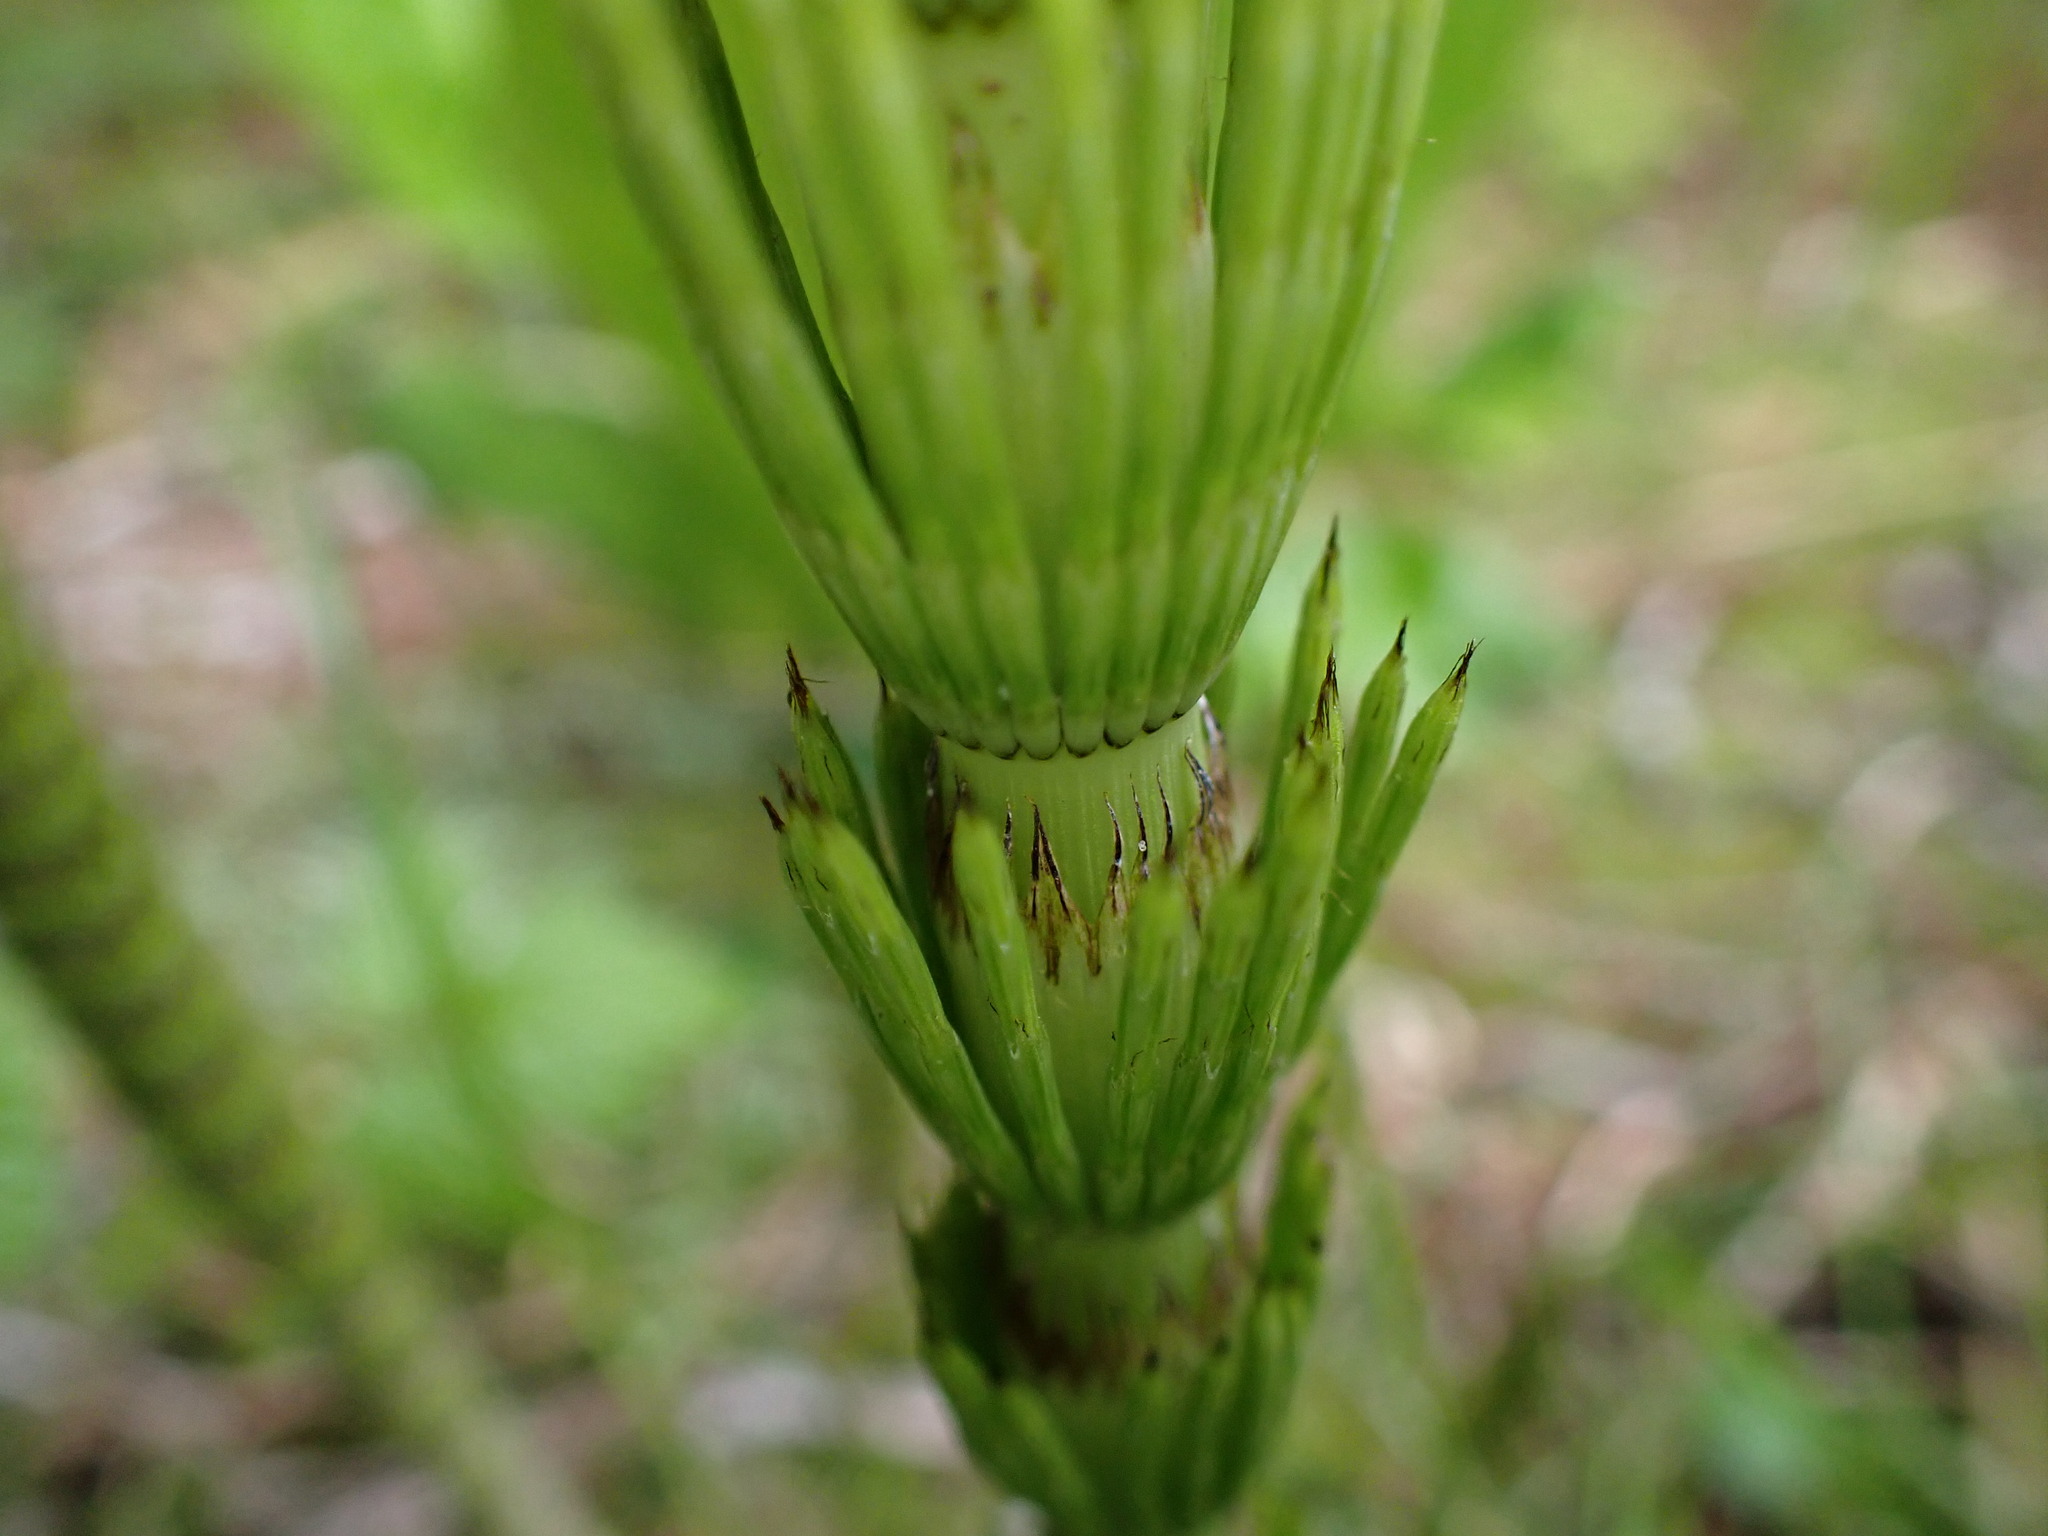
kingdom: Plantae
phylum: Tracheophyta
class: Polypodiopsida
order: Equisetales
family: Equisetaceae
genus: Equisetum
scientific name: Equisetum braunii
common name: Braun's horsetail
